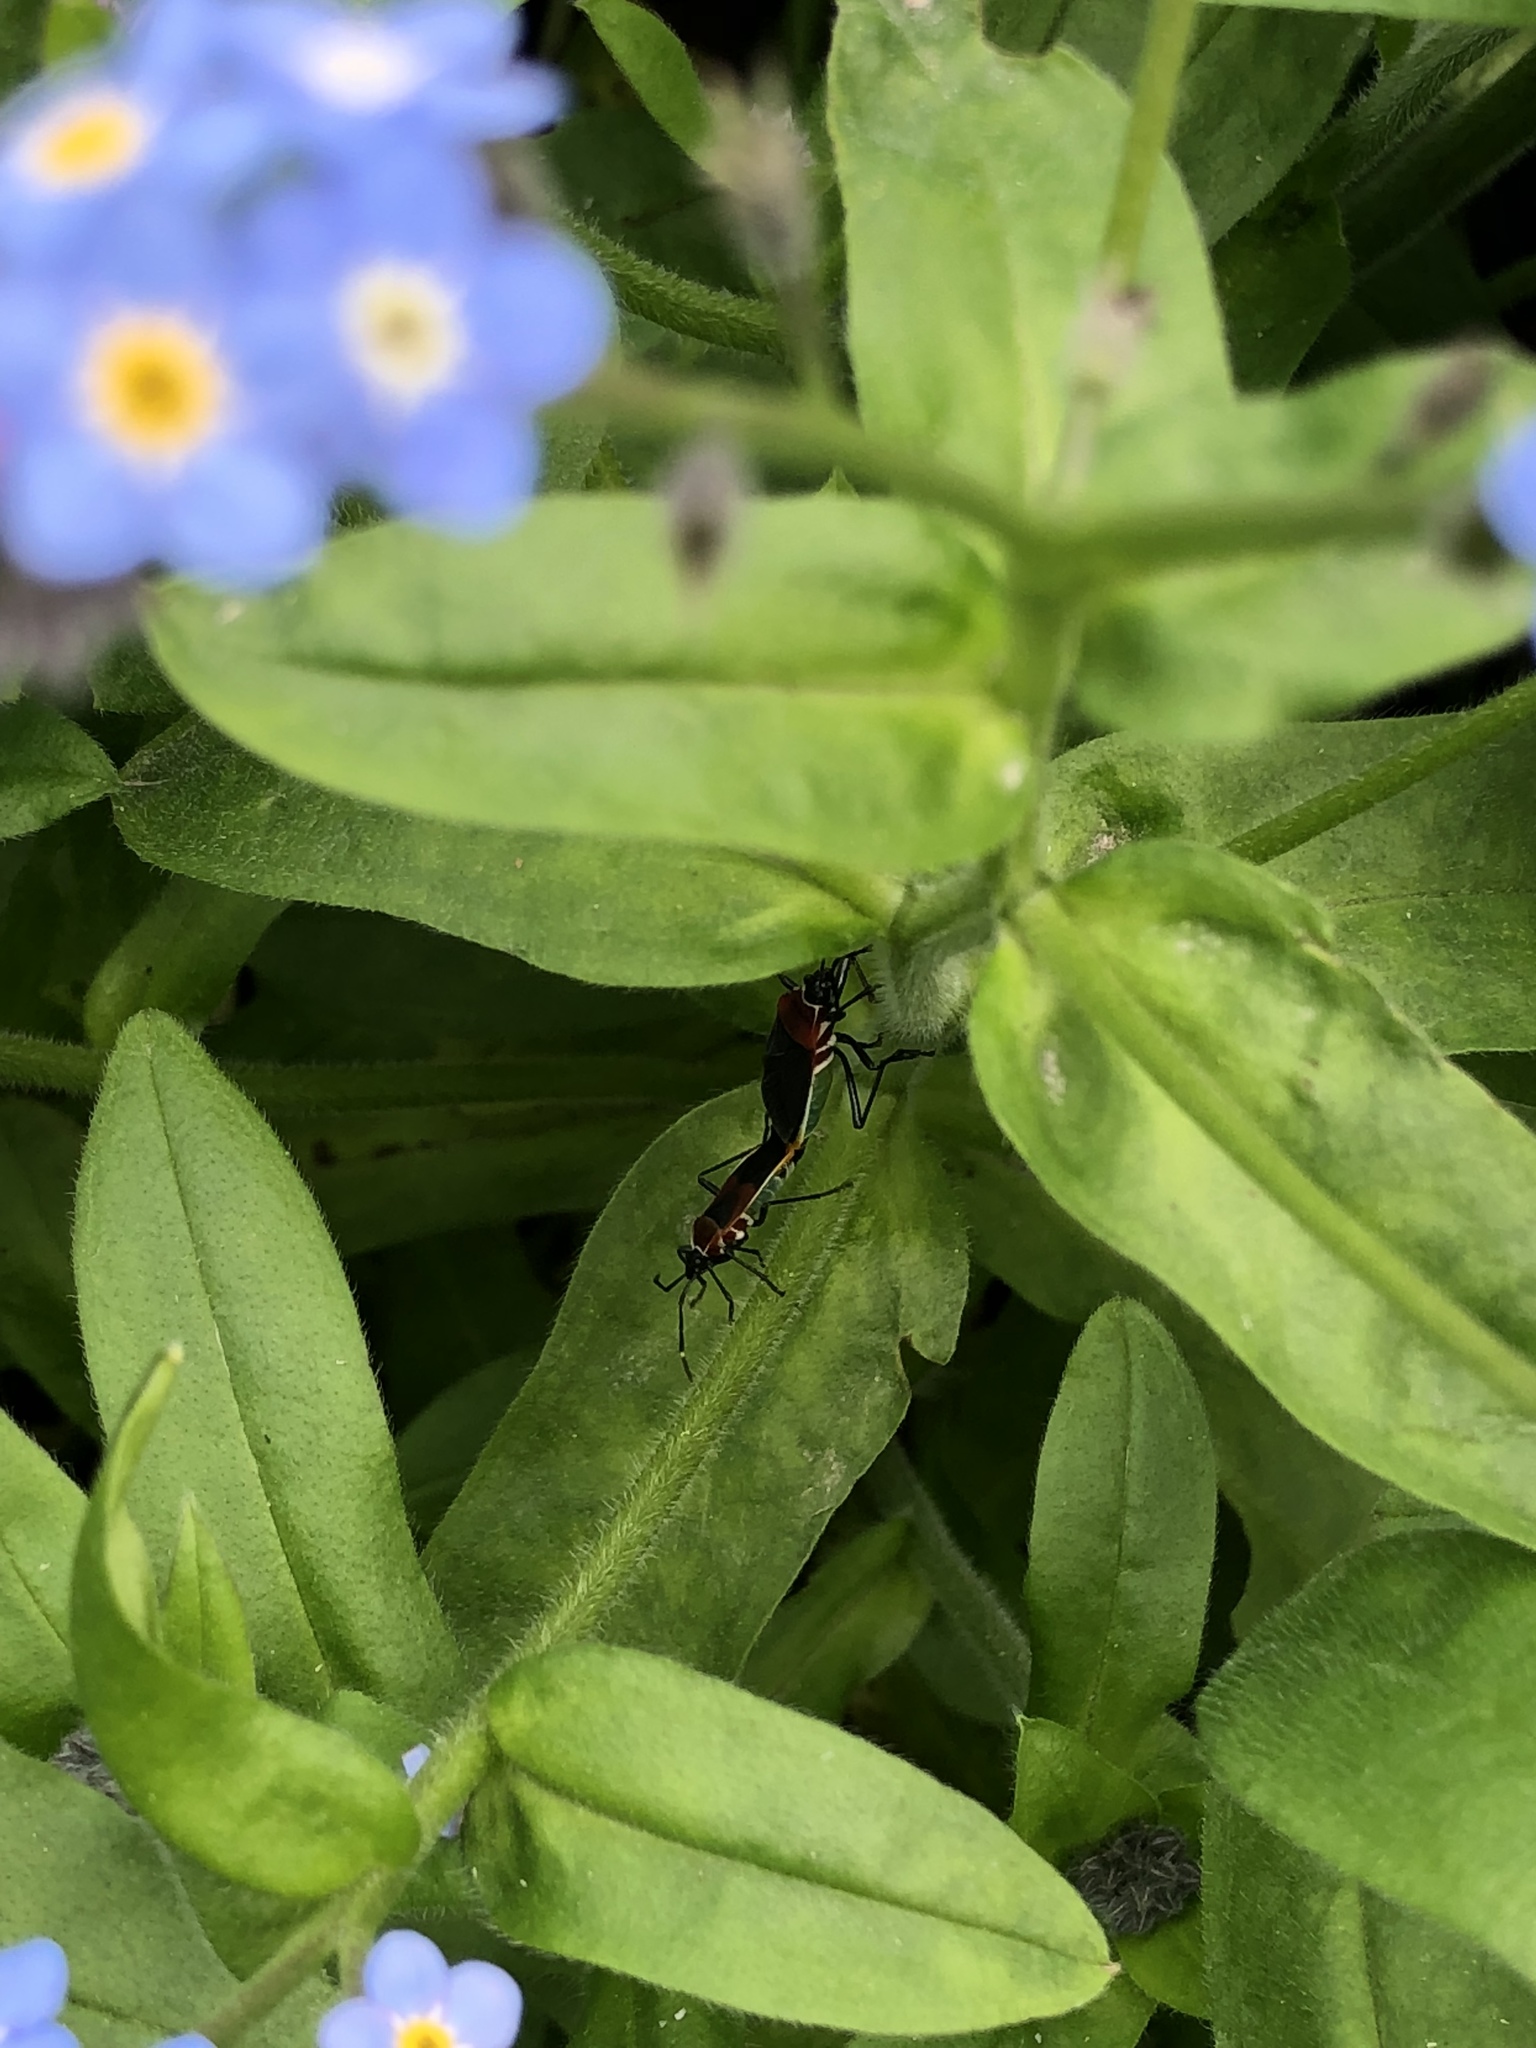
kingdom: Animalia
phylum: Arthropoda
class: Insecta
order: Hemiptera
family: Pyrrhocoridae
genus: Dindymus
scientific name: Dindymus
